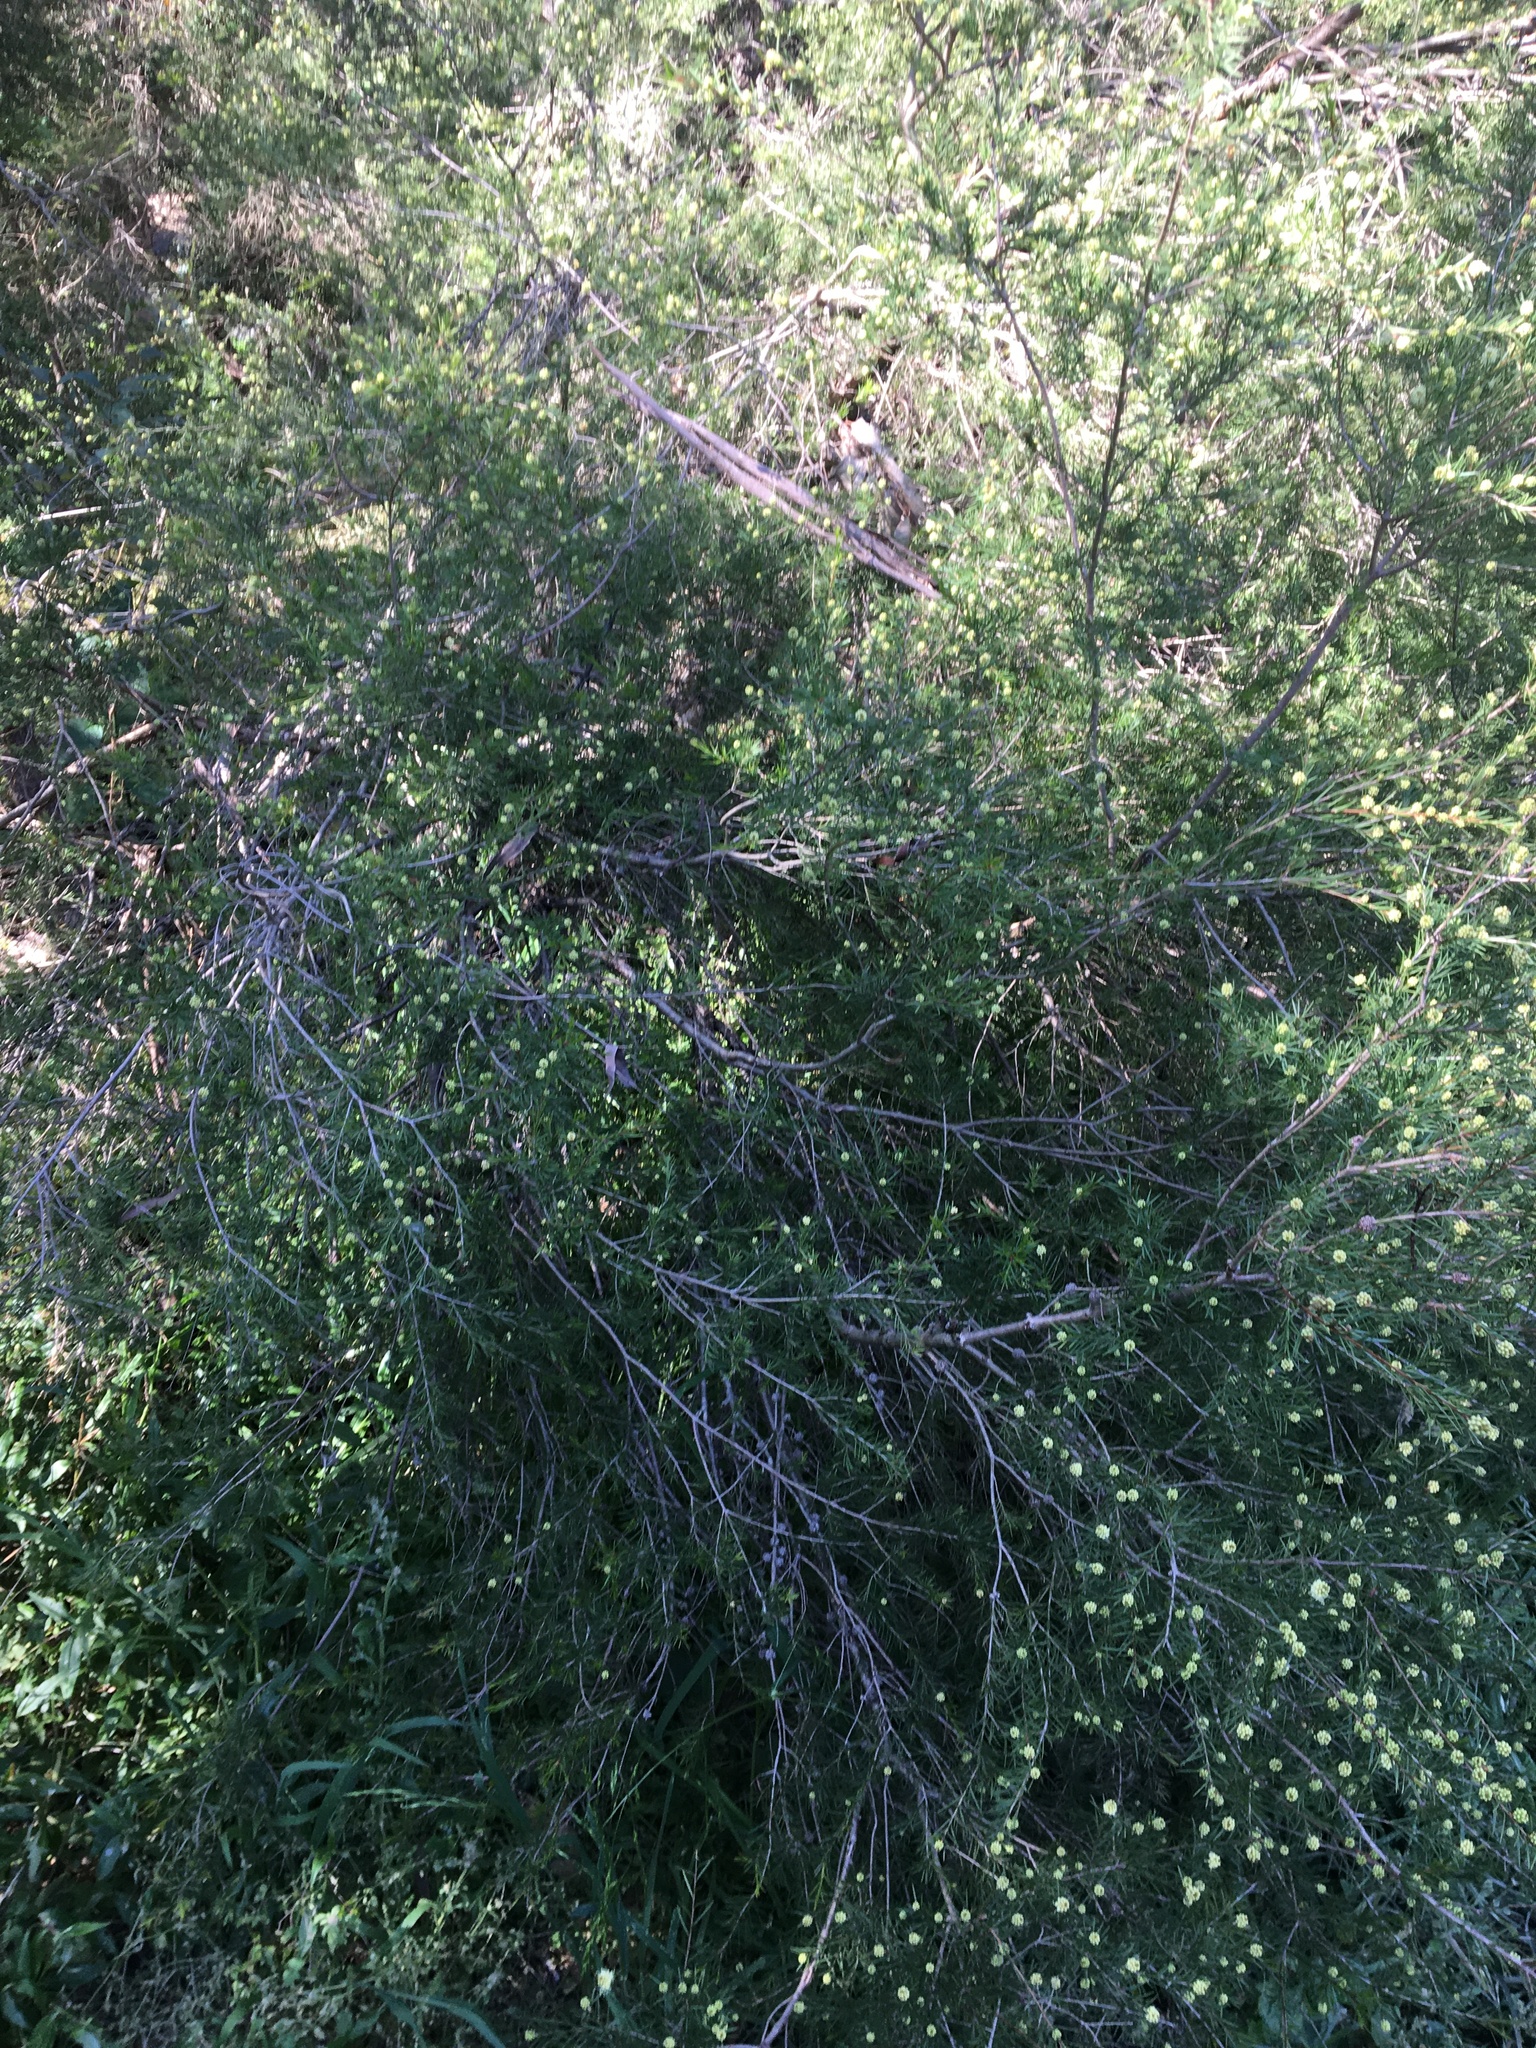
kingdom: Plantae
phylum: Tracheophyta
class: Magnoliopsida
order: Myrtales
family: Myrtaceae
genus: Melaleuca
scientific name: Melaleuca nodosa
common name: Prickly-leaf paperbark
